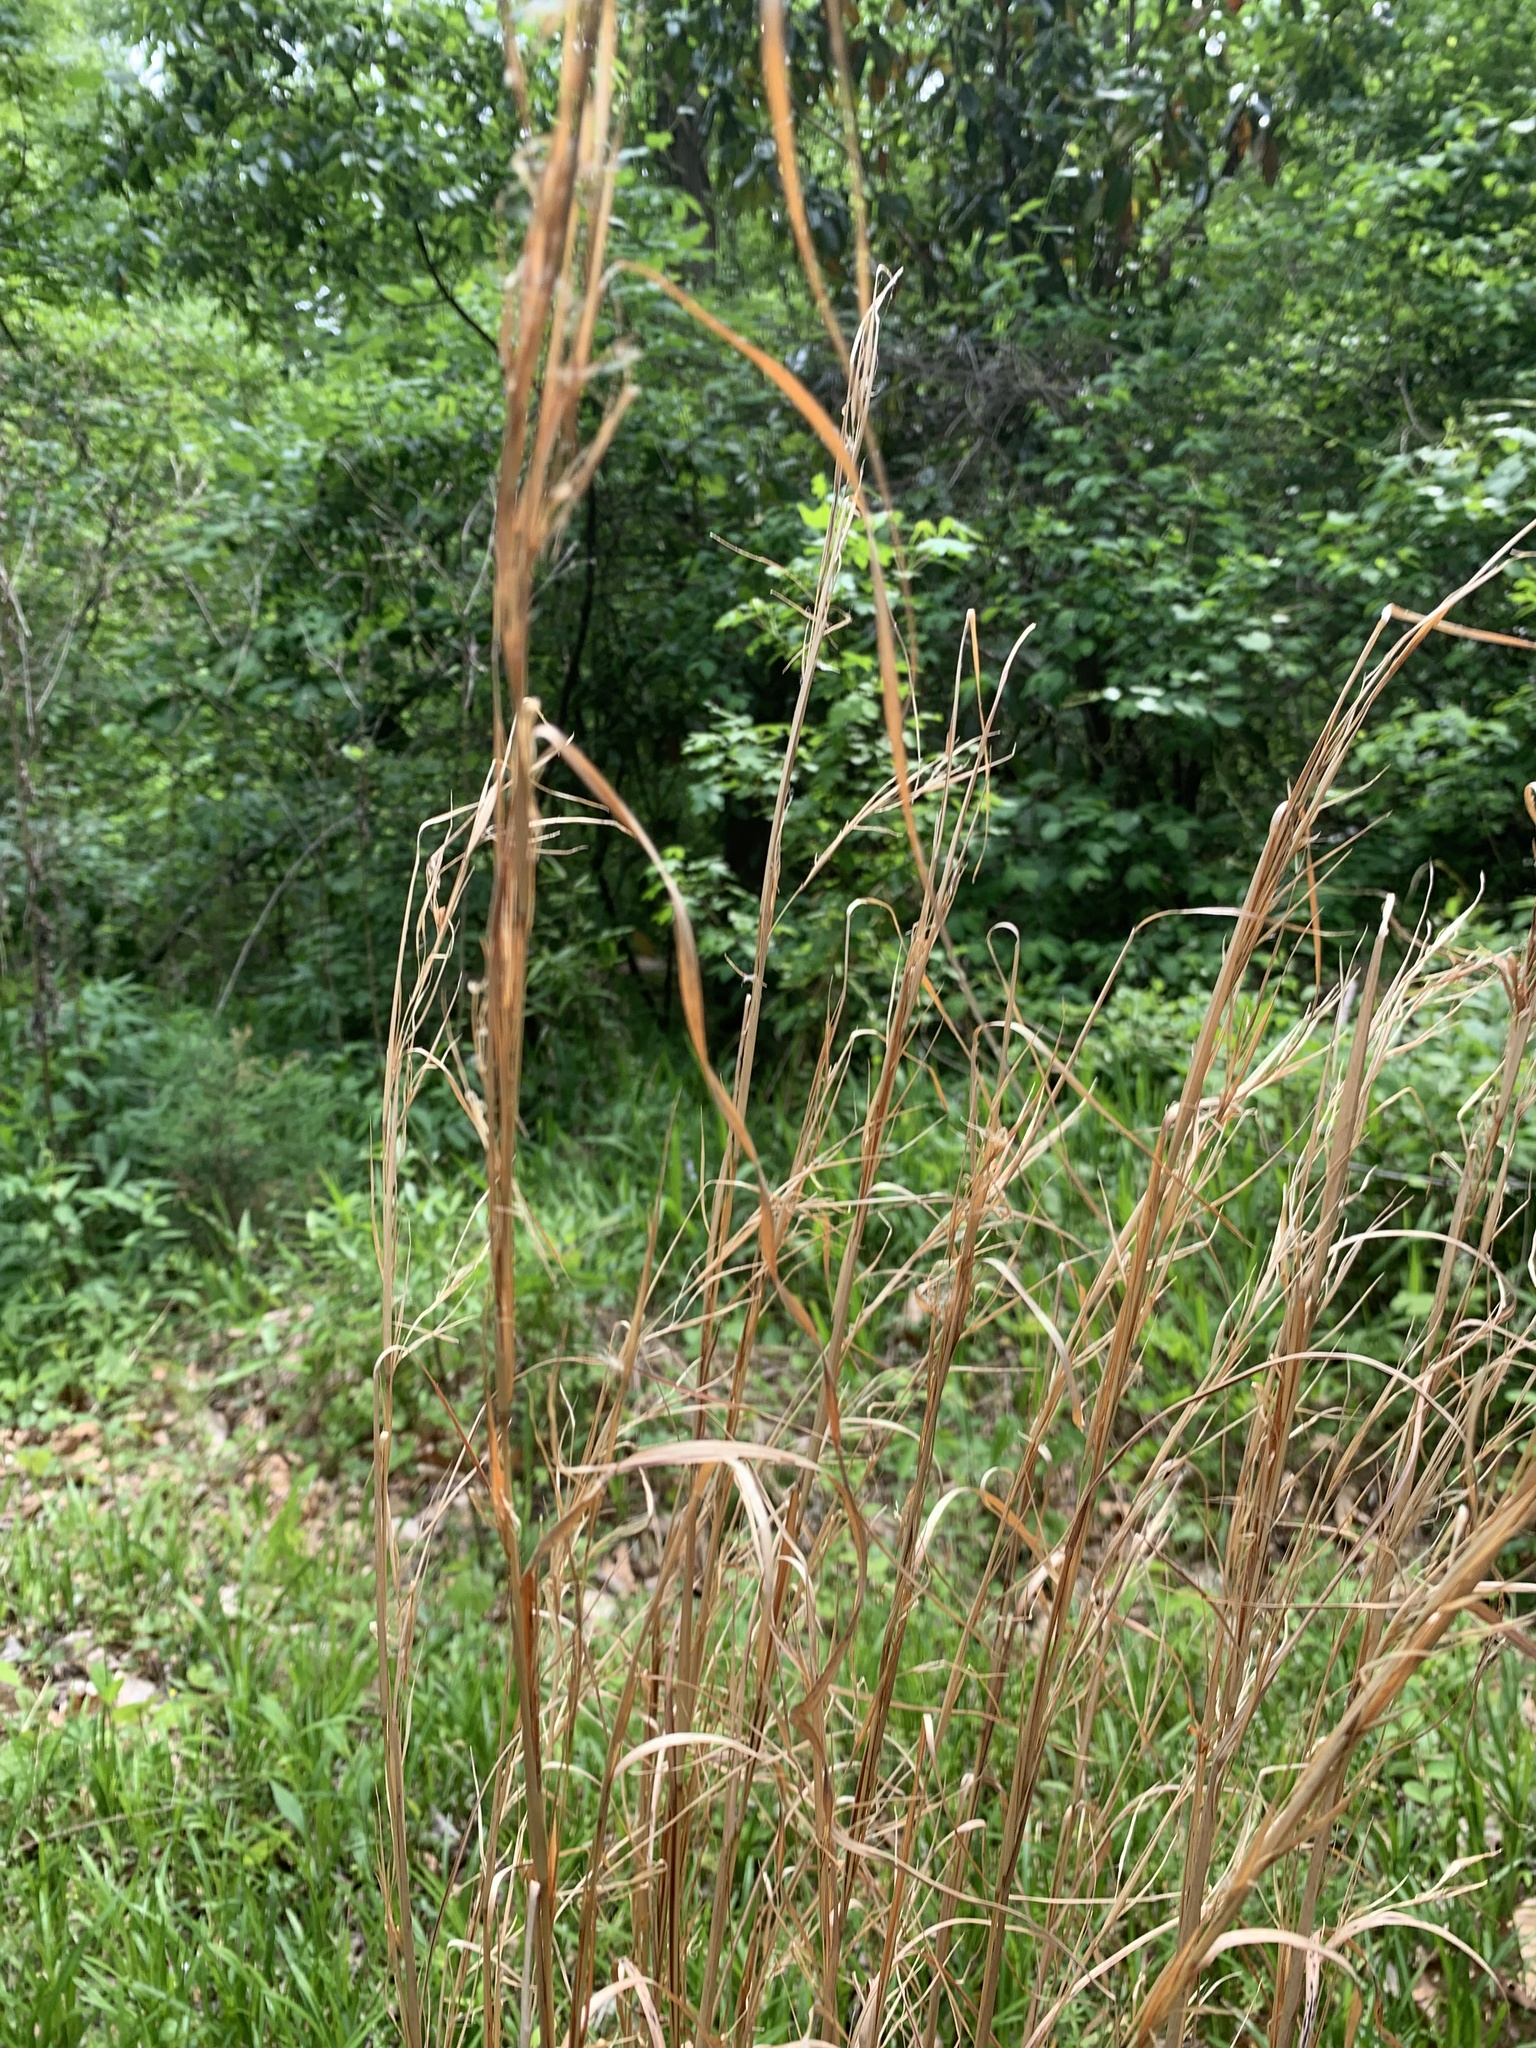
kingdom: Plantae
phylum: Tracheophyta
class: Liliopsida
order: Poales
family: Poaceae
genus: Andropogon
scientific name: Andropogon virginicus
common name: Broomsedge bluestem
